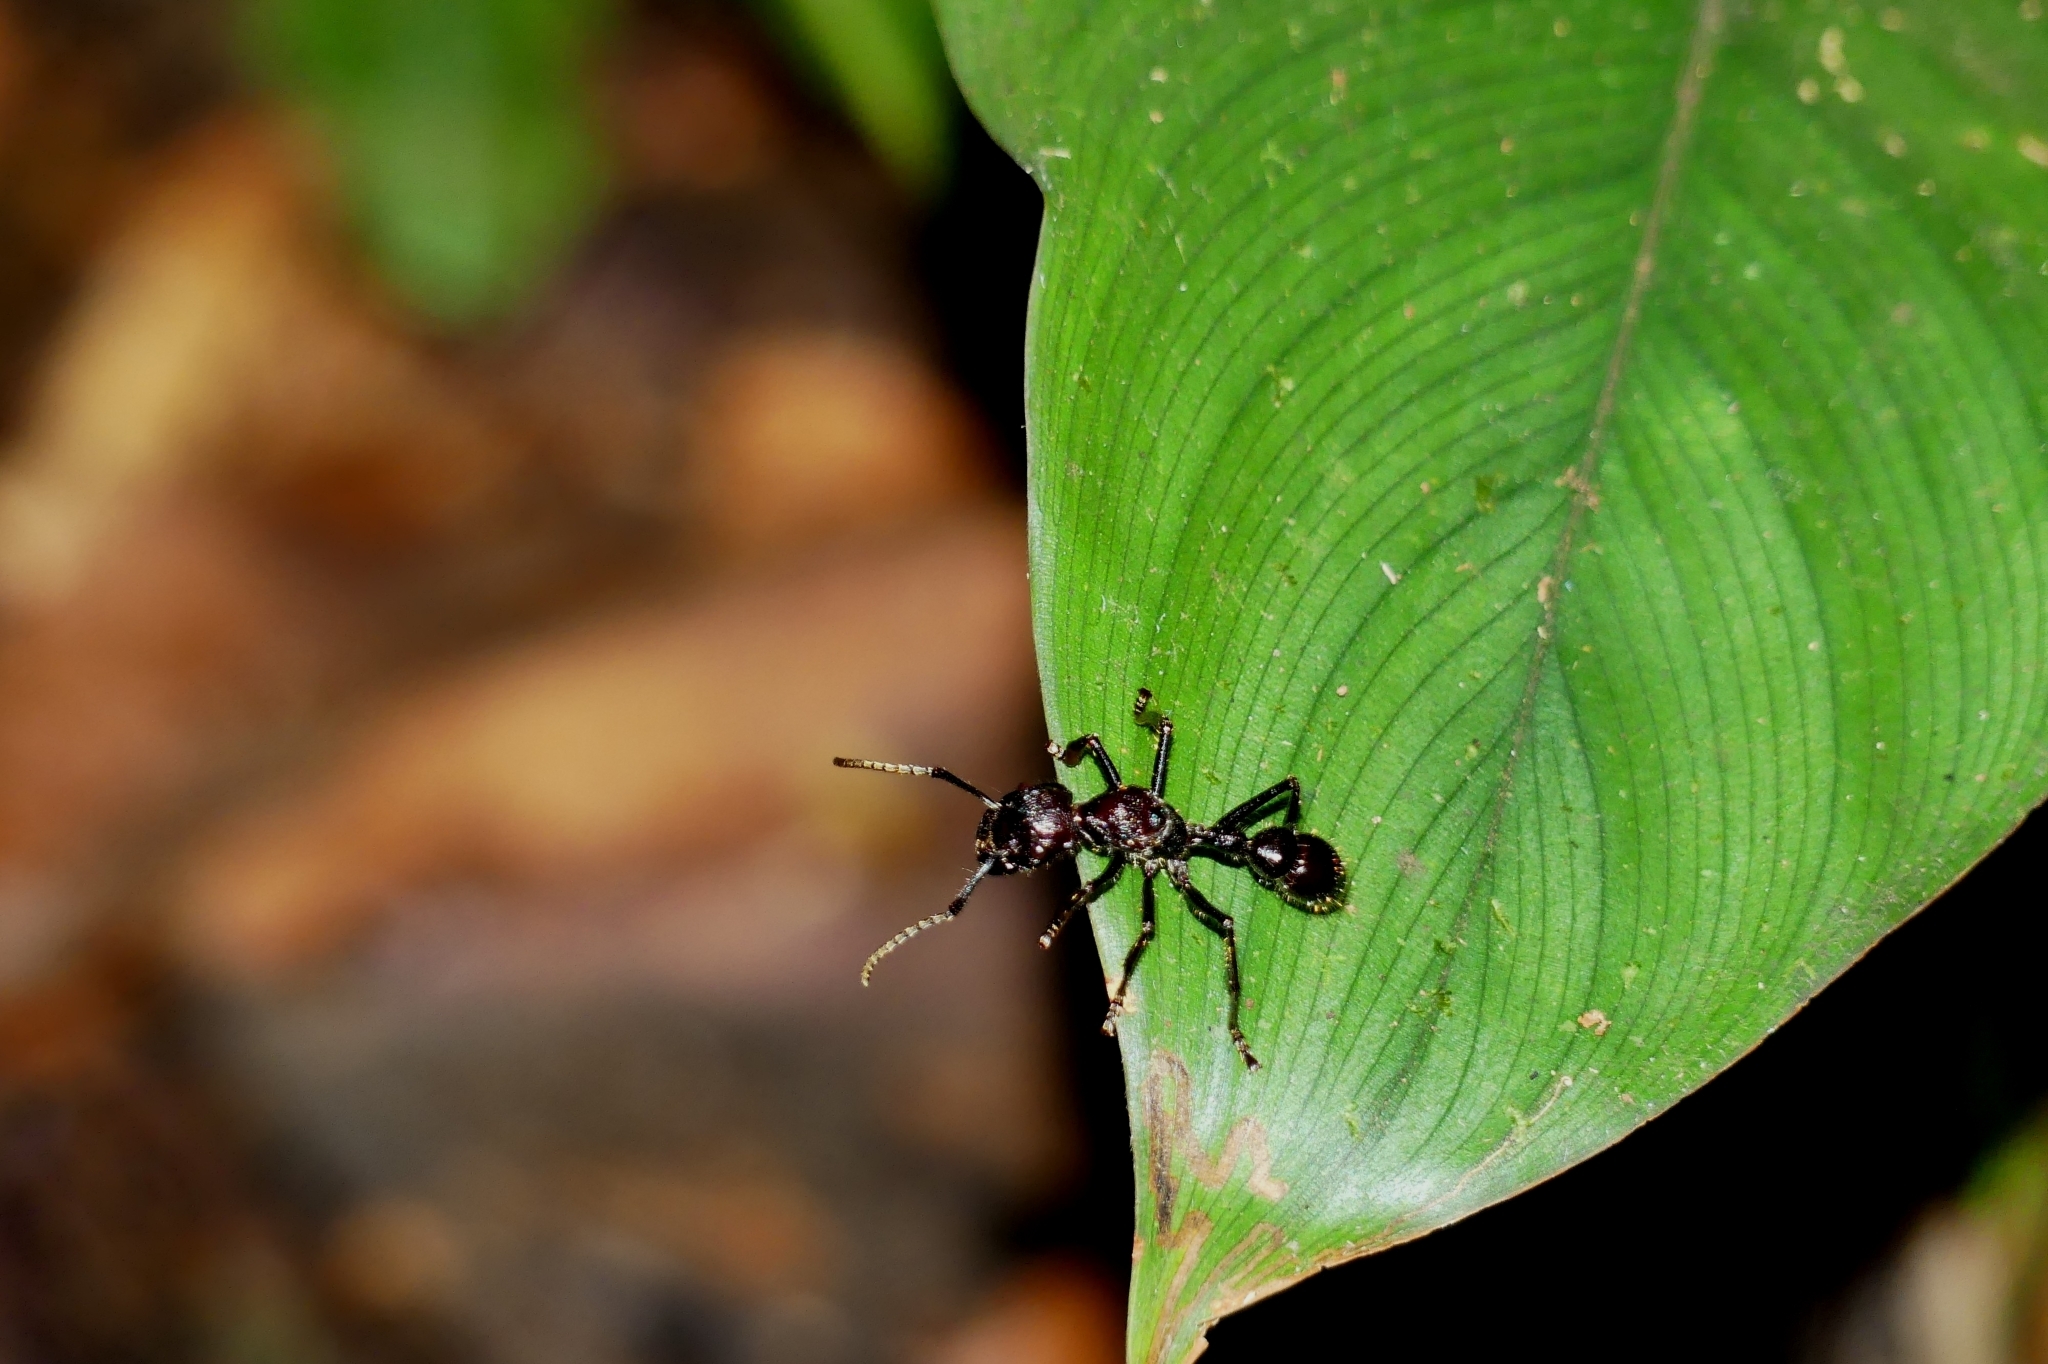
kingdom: Animalia
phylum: Arthropoda
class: Insecta
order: Hymenoptera
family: Formicidae
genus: Paraponera
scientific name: Paraponera clavata
